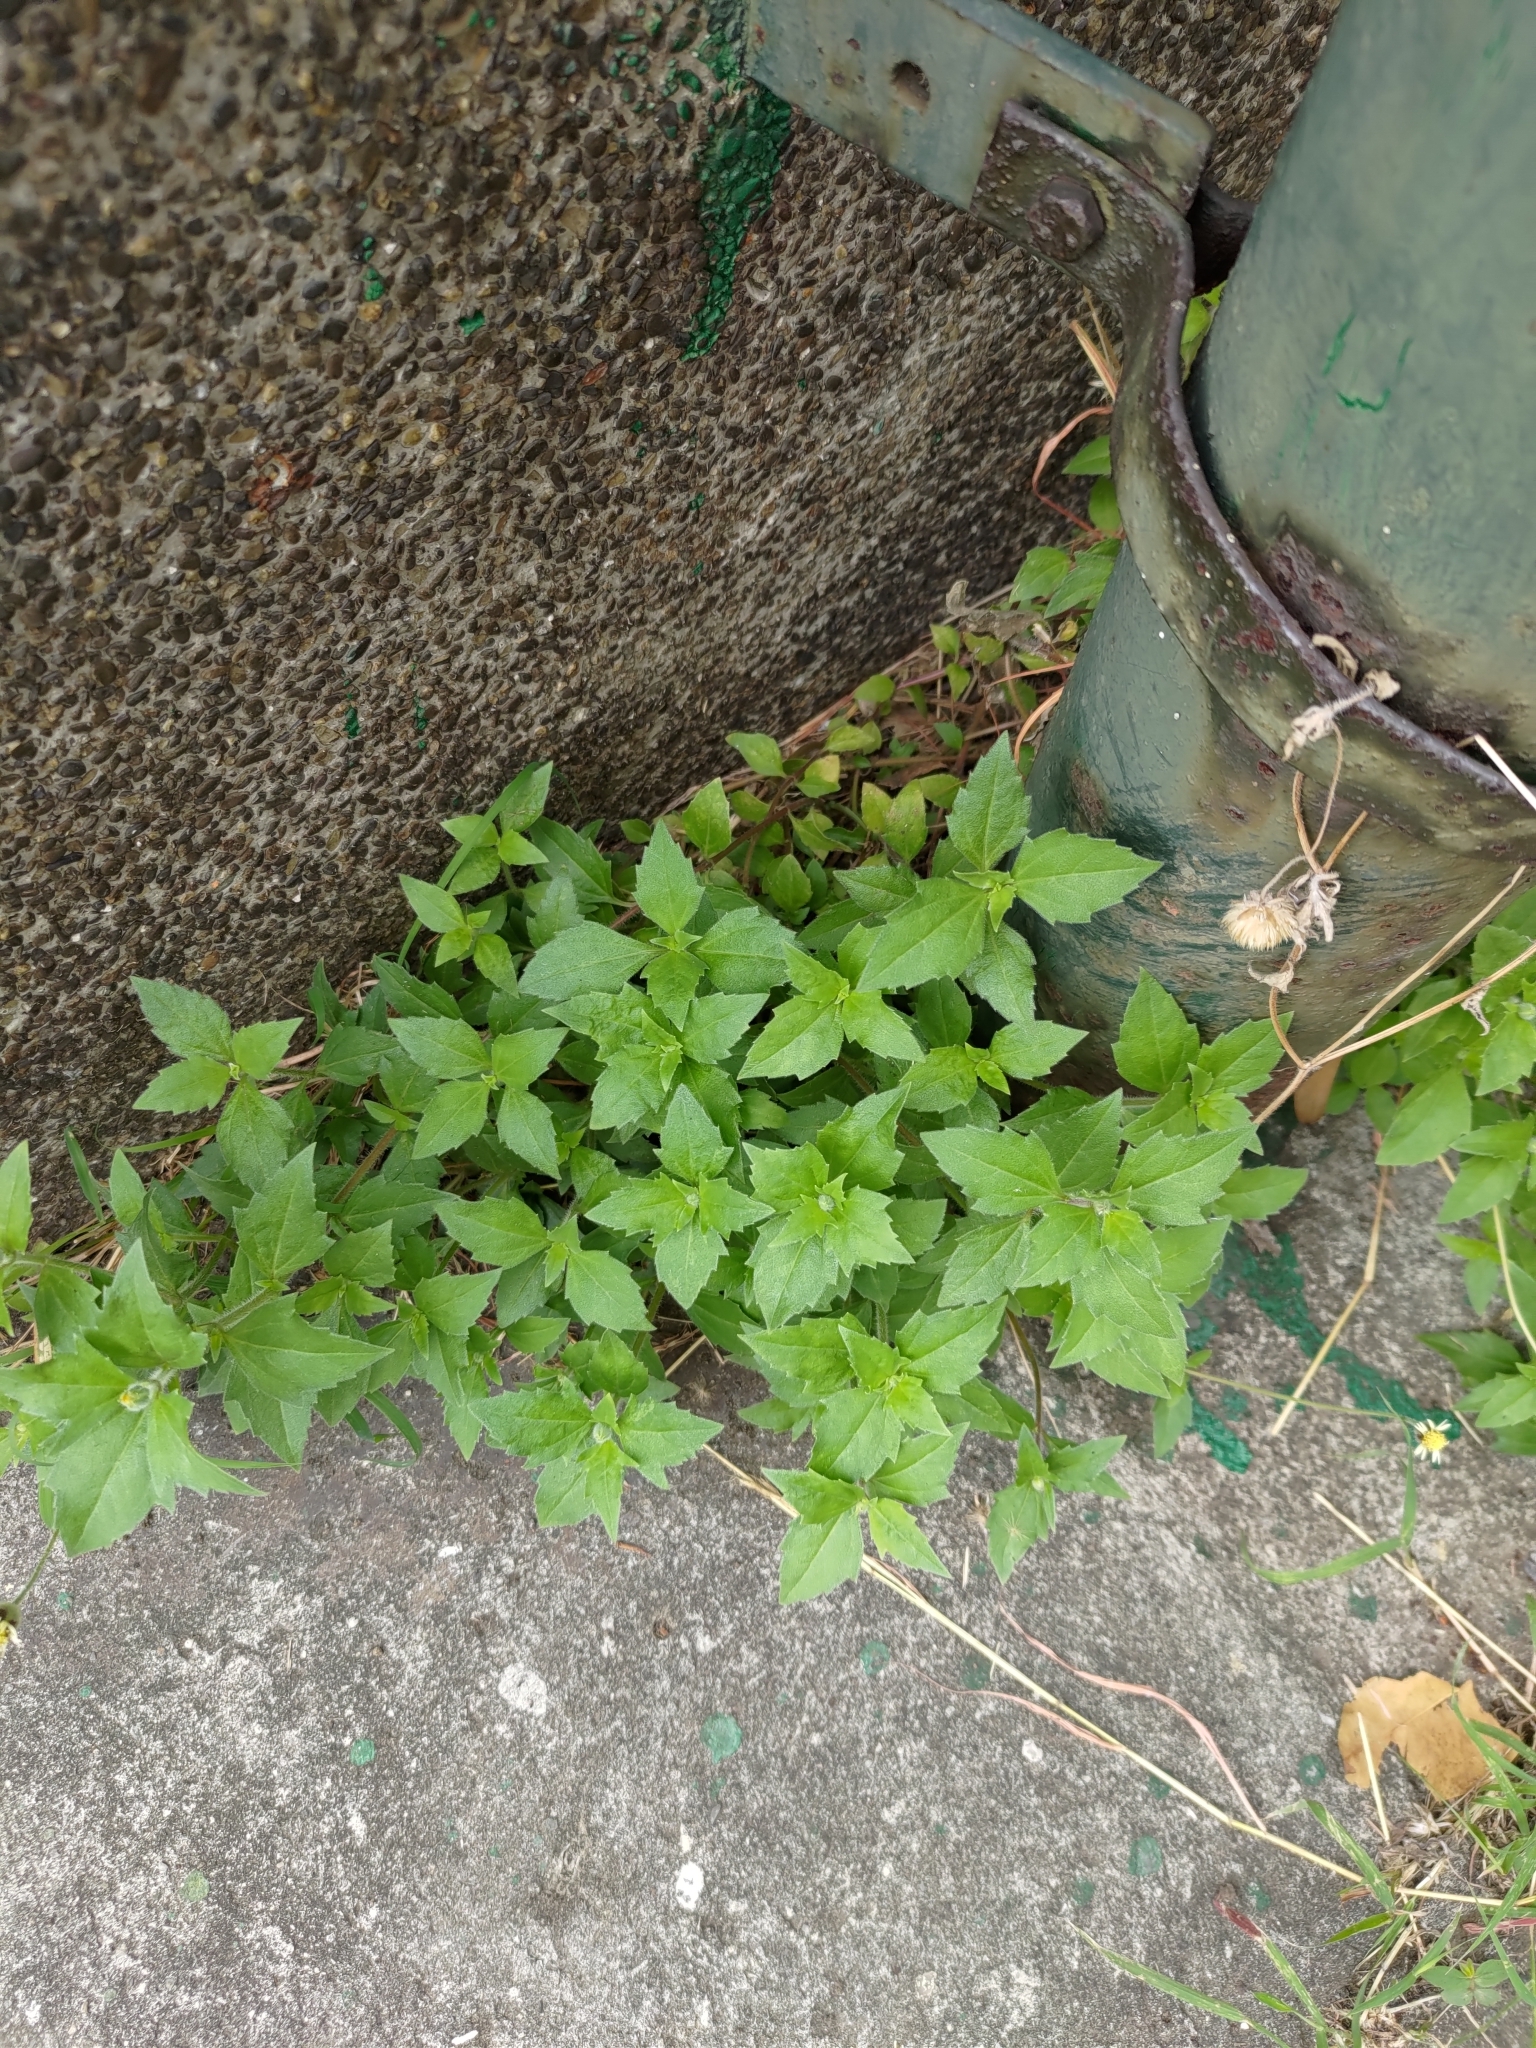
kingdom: Plantae
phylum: Tracheophyta
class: Magnoliopsida
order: Asterales
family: Asteraceae
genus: Tridax
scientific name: Tridax procumbens
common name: Coatbuttons
